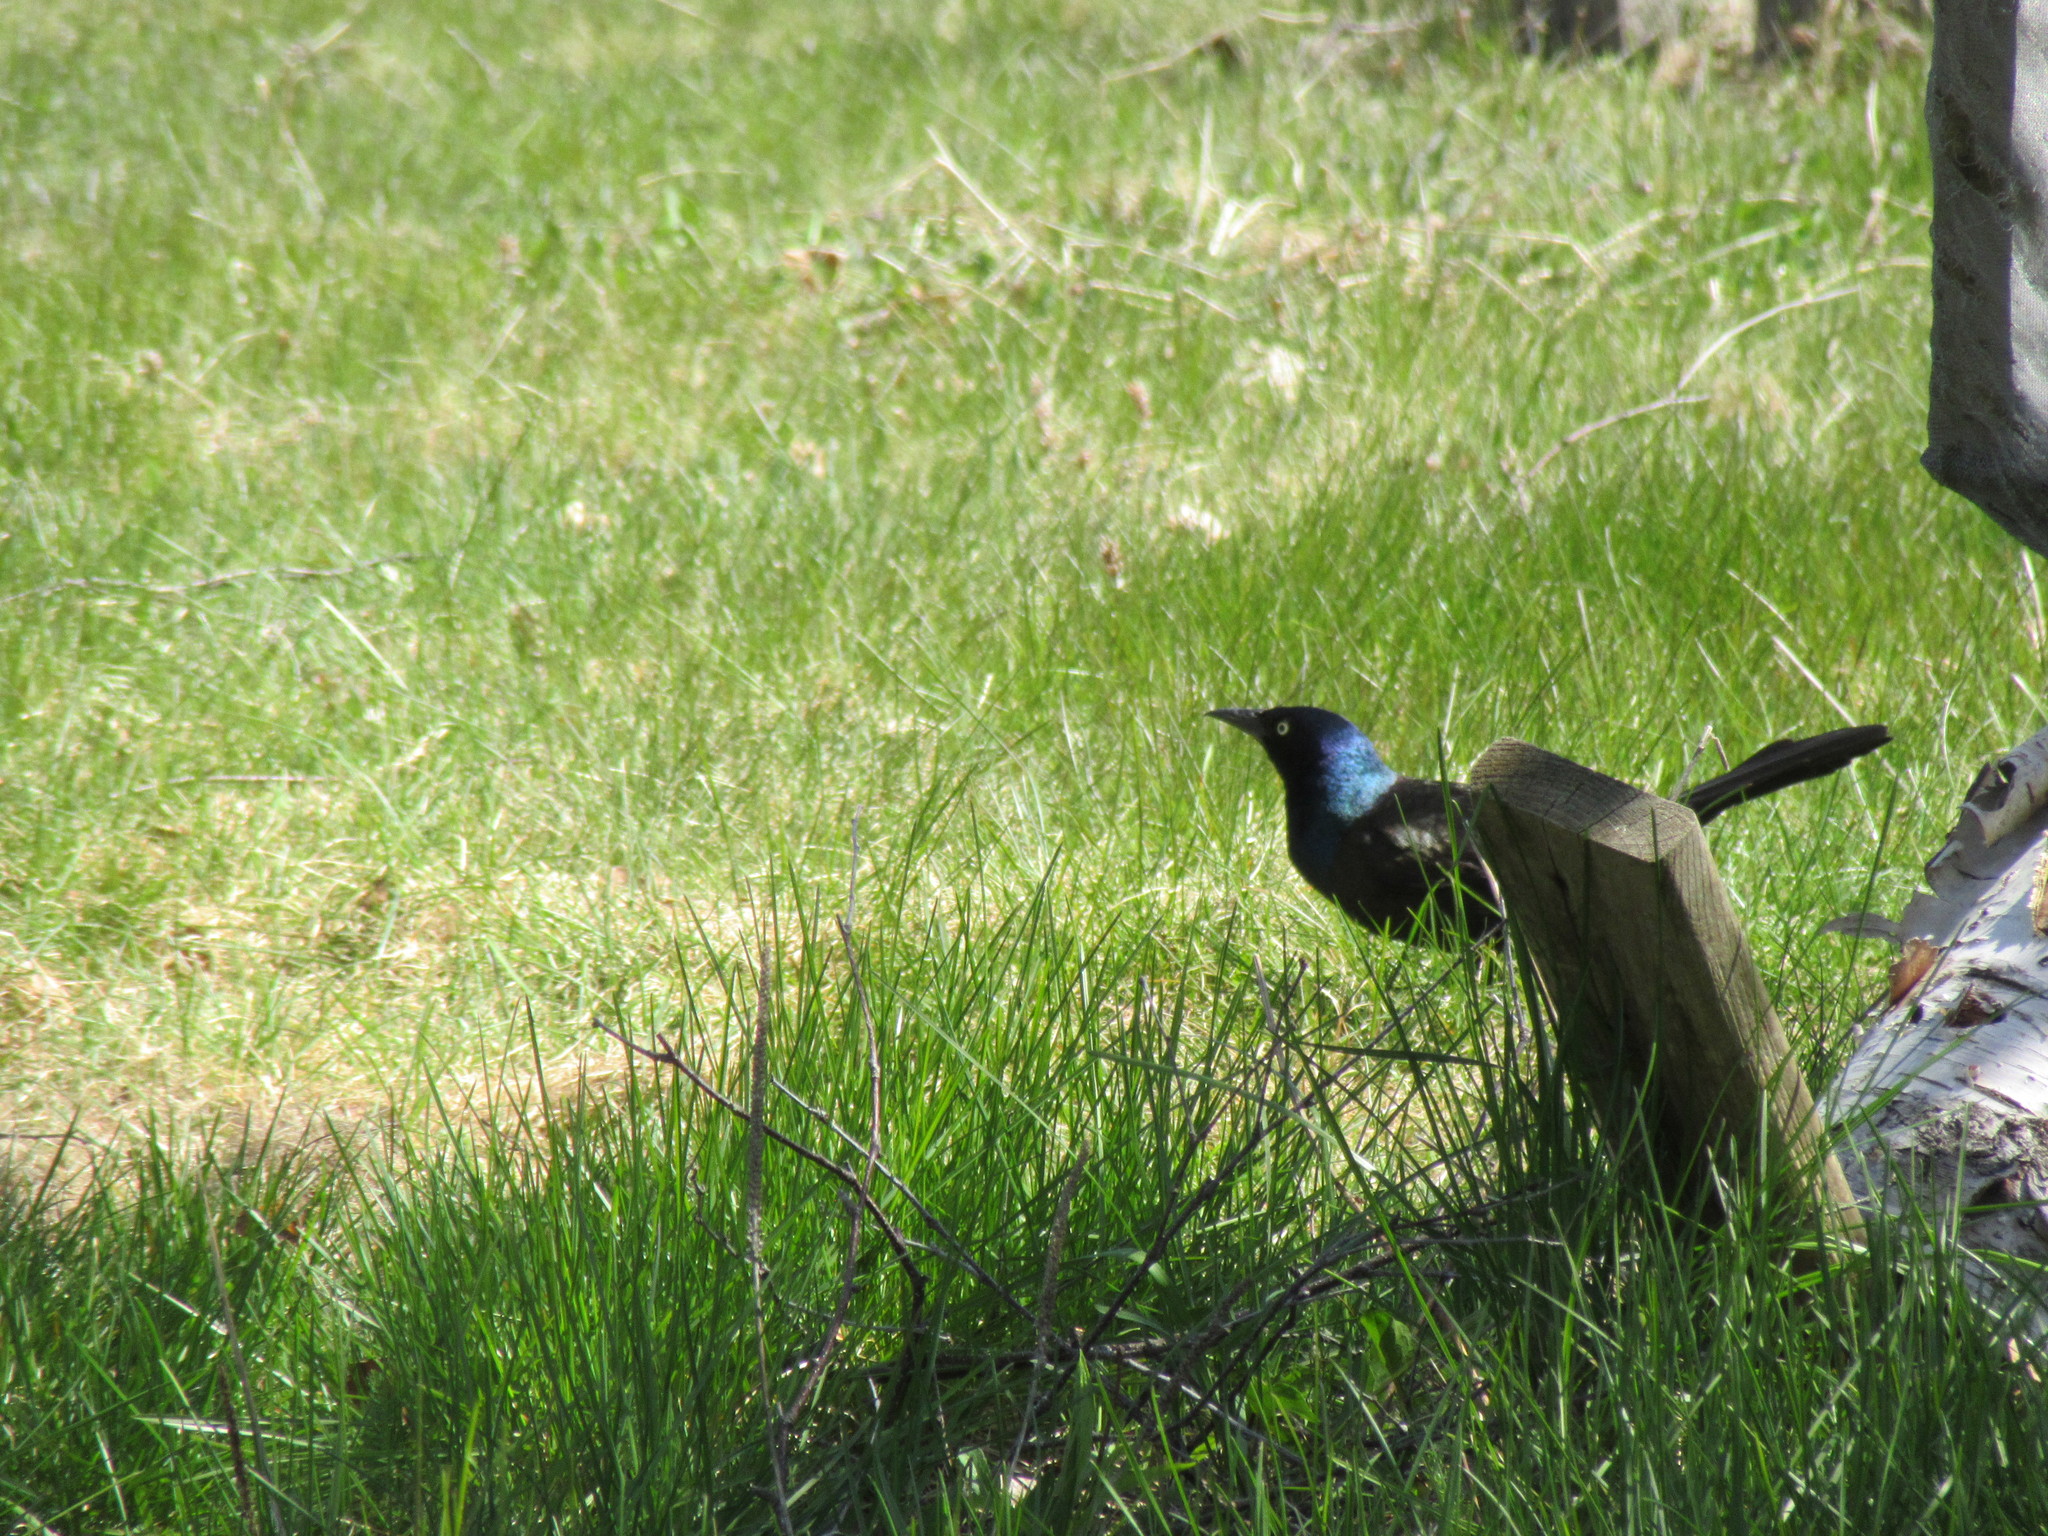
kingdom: Animalia
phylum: Chordata
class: Aves
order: Passeriformes
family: Icteridae
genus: Quiscalus
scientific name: Quiscalus quiscula
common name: Common grackle
